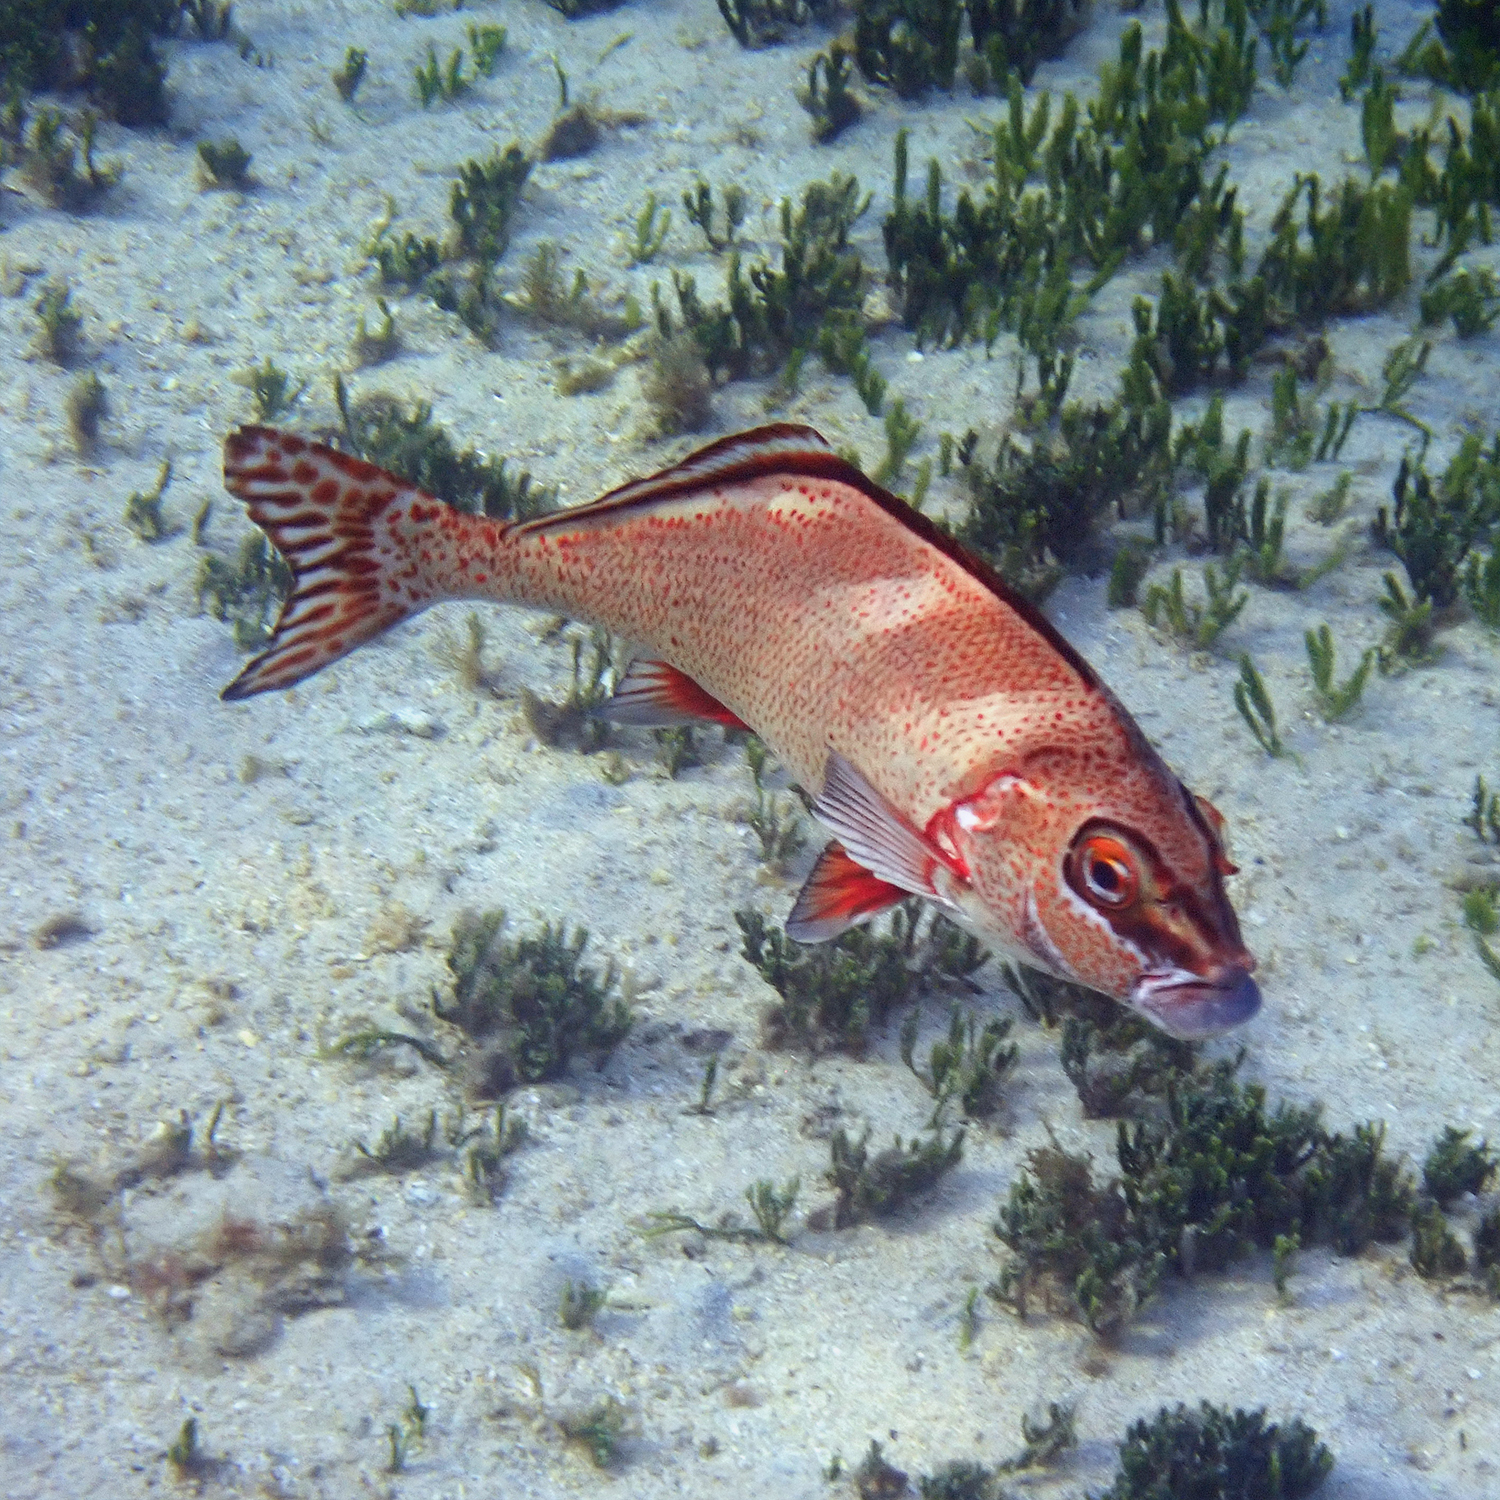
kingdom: Animalia
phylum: Chordata
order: Perciformes
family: Latridae
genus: Morwong
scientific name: Morwong ephippium
